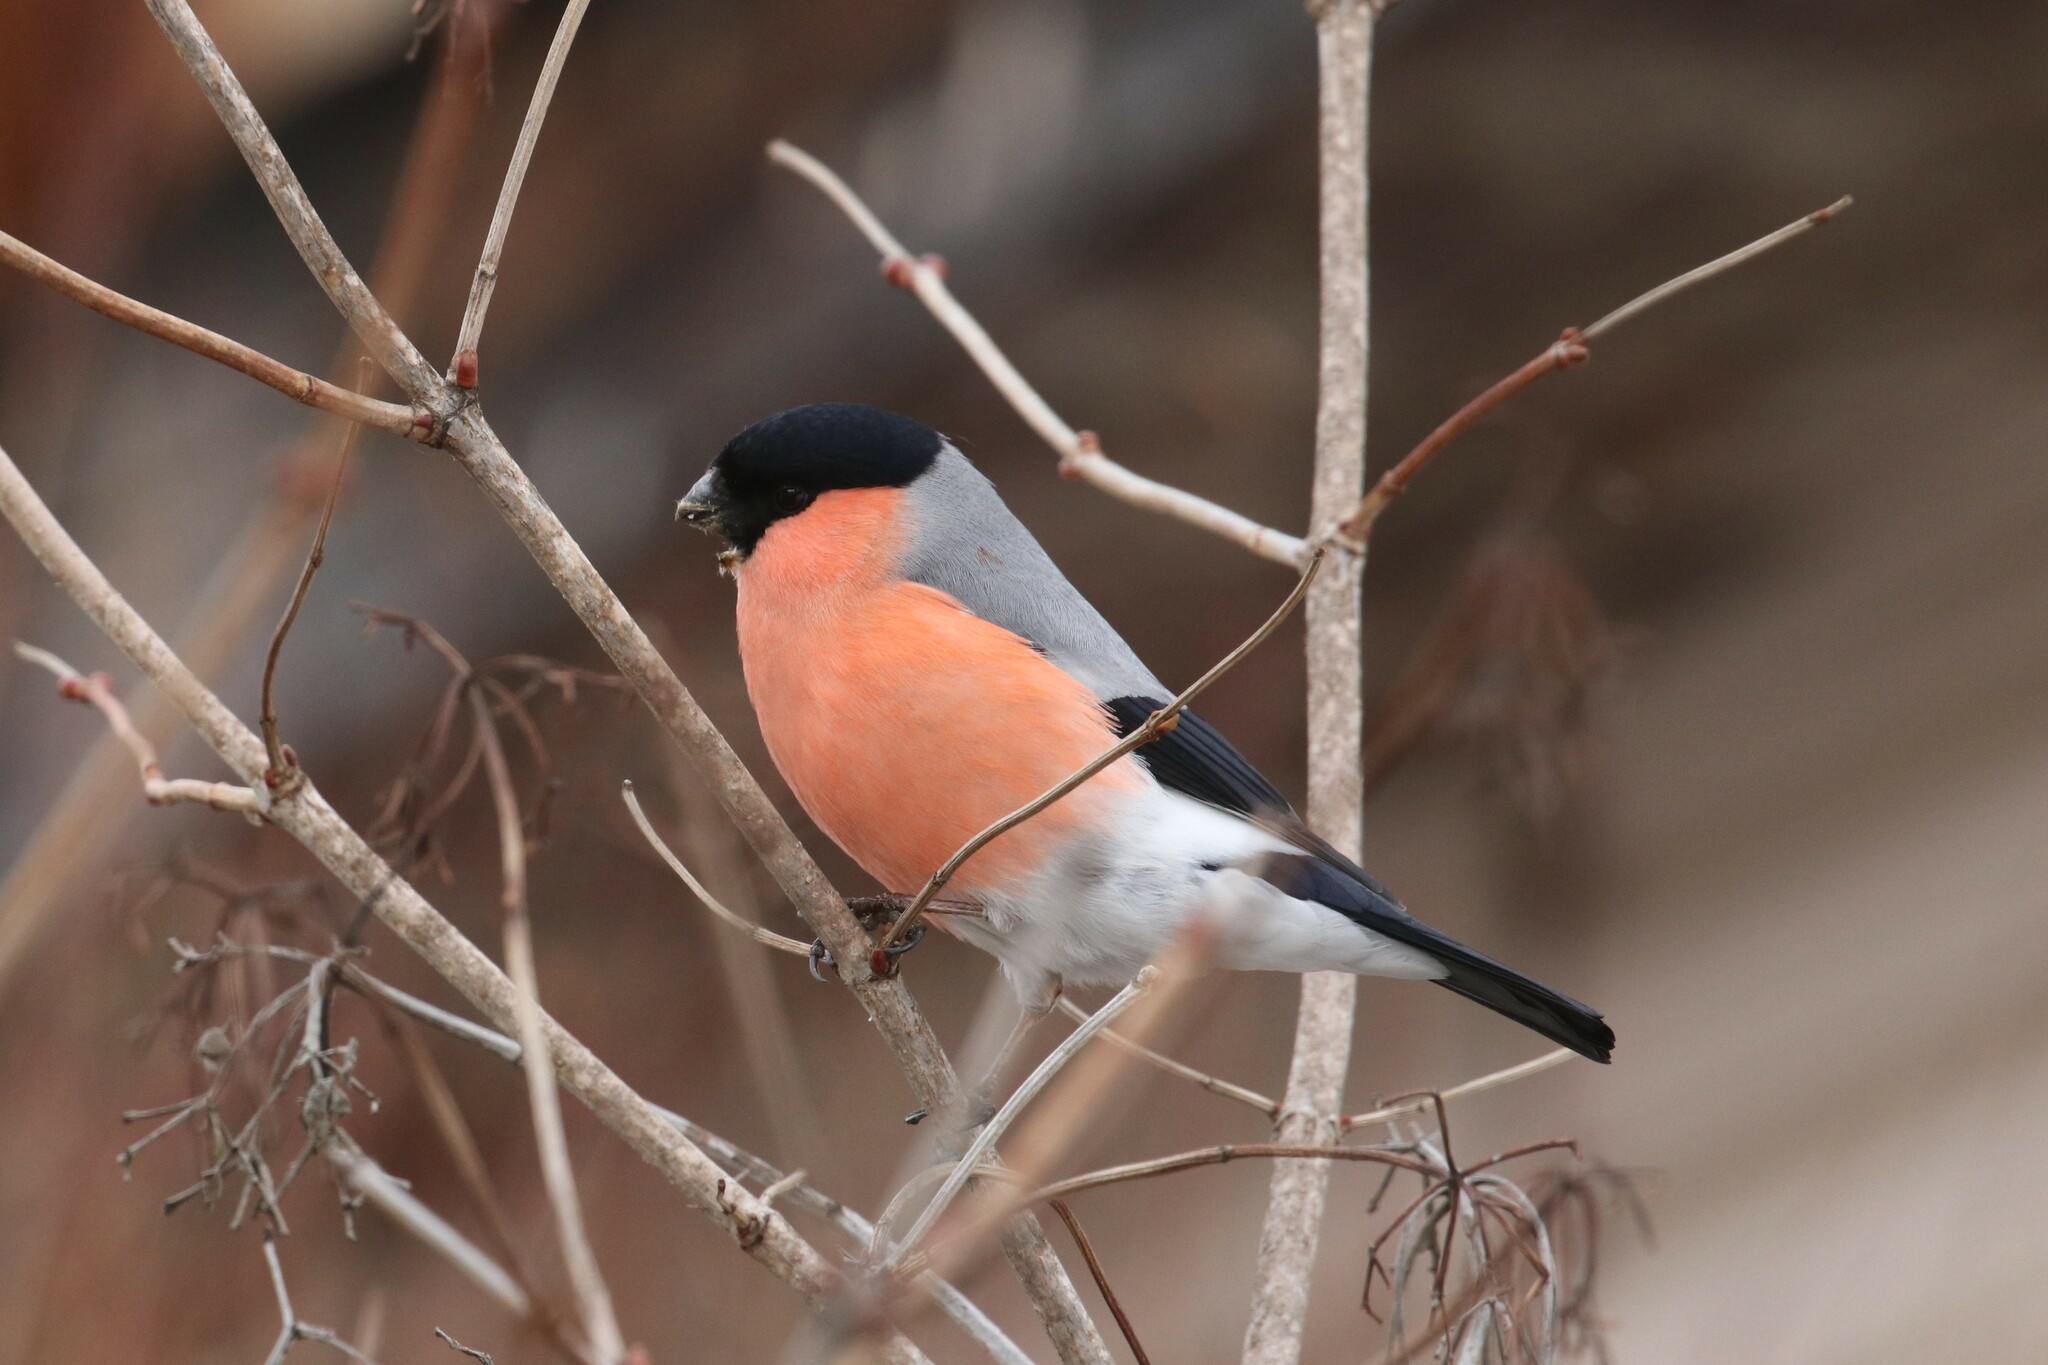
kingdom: Animalia
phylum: Chordata
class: Aves
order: Passeriformes
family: Fringillidae
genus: Pyrrhula
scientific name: Pyrrhula pyrrhula
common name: Eurasian bullfinch
